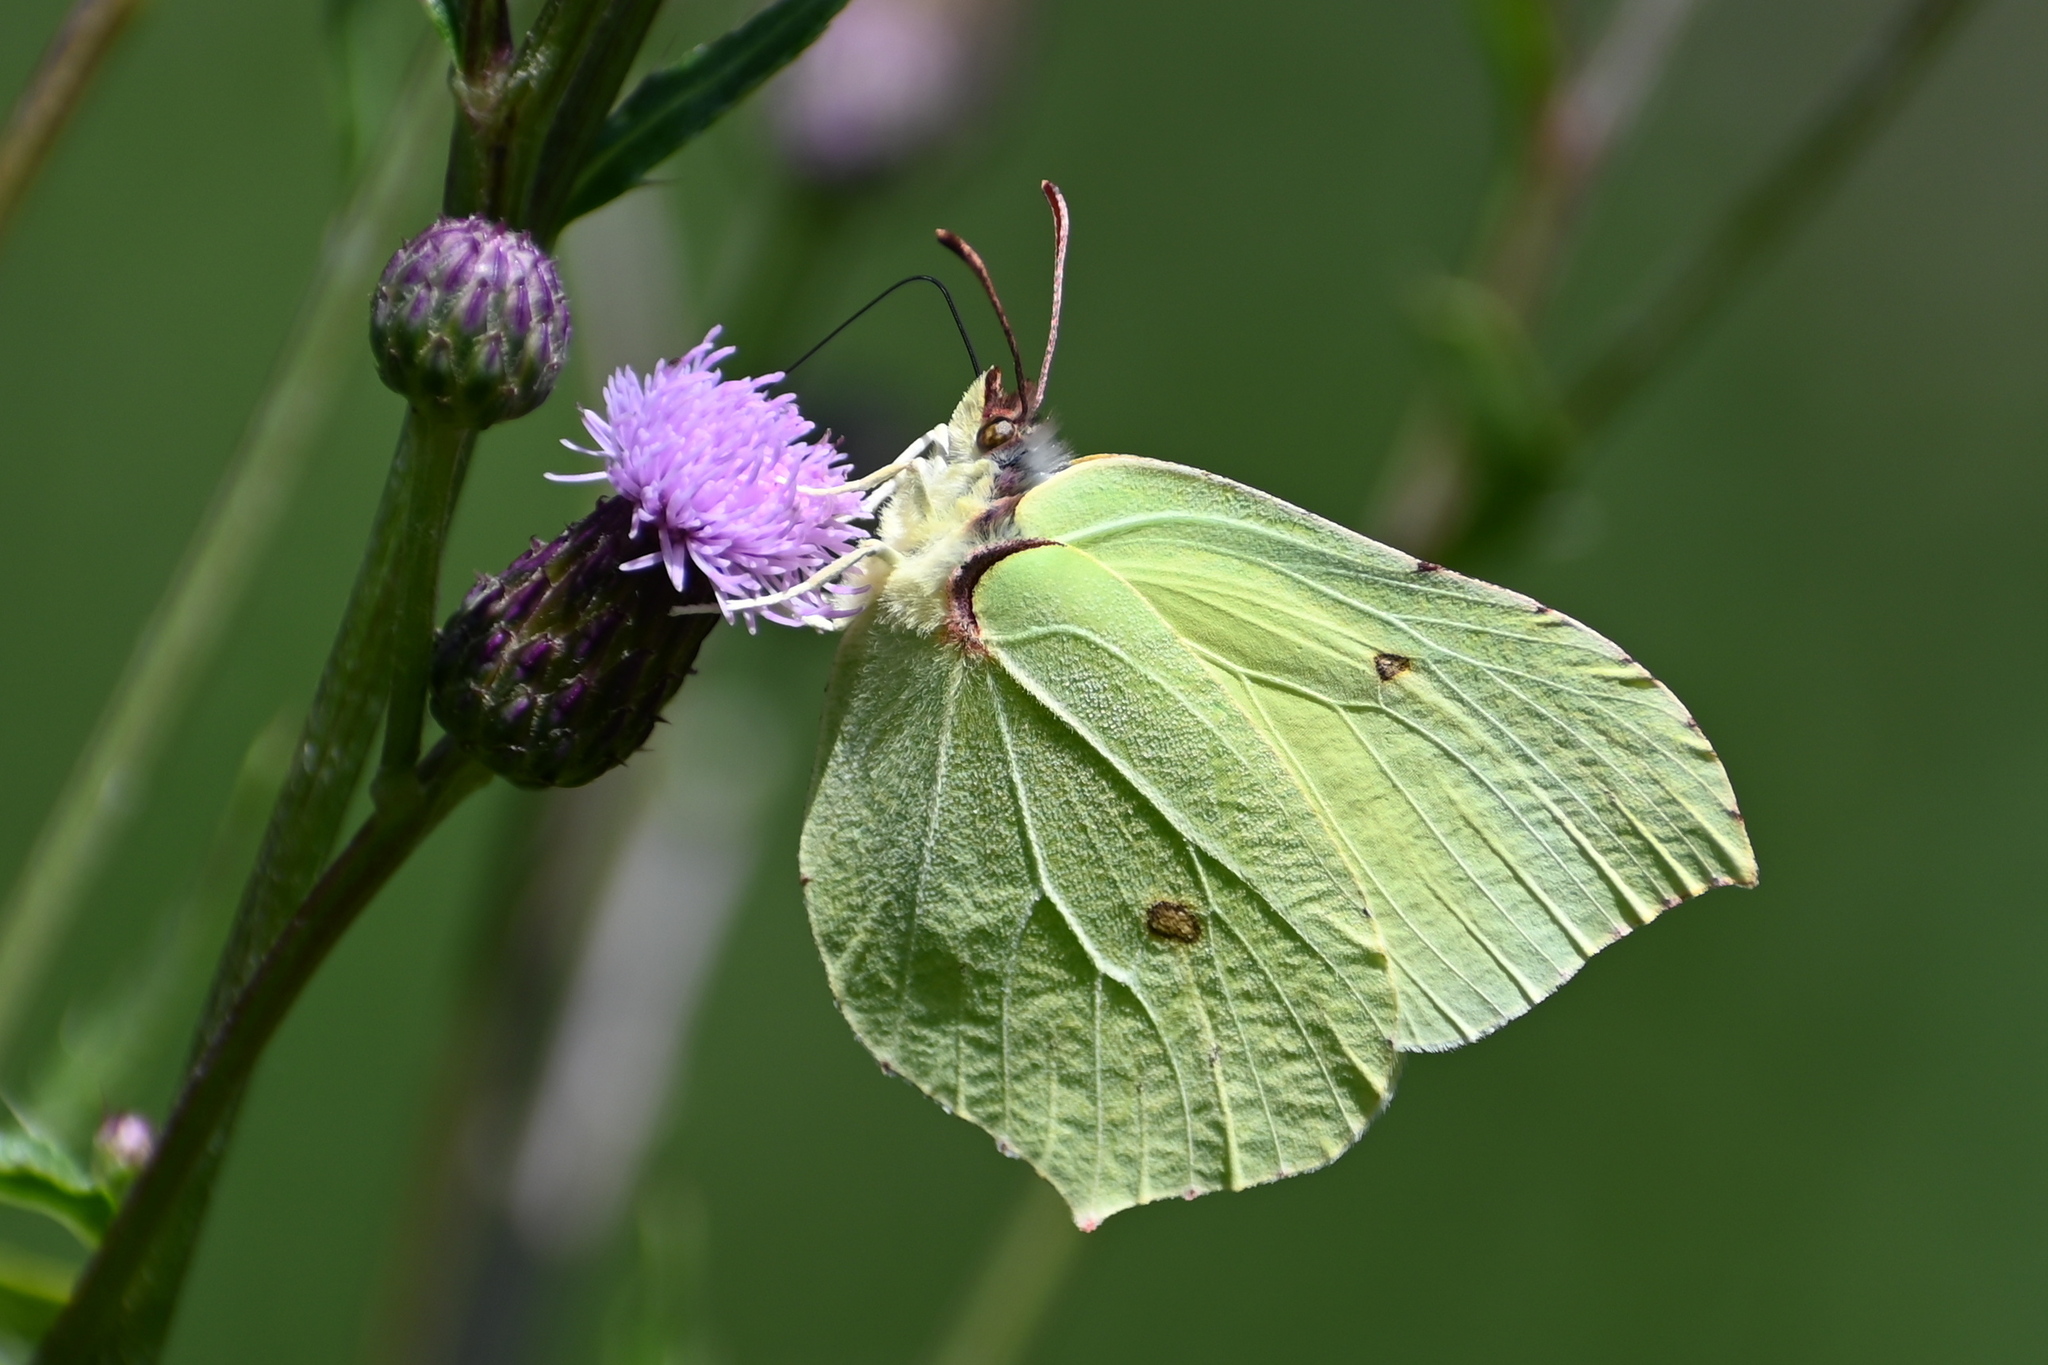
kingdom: Animalia
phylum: Arthropoda
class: Insecta
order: Lepidoptera
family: Pieridae
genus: Gonepteryx
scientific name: Gonepteryx rhamni
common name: Brimstone
